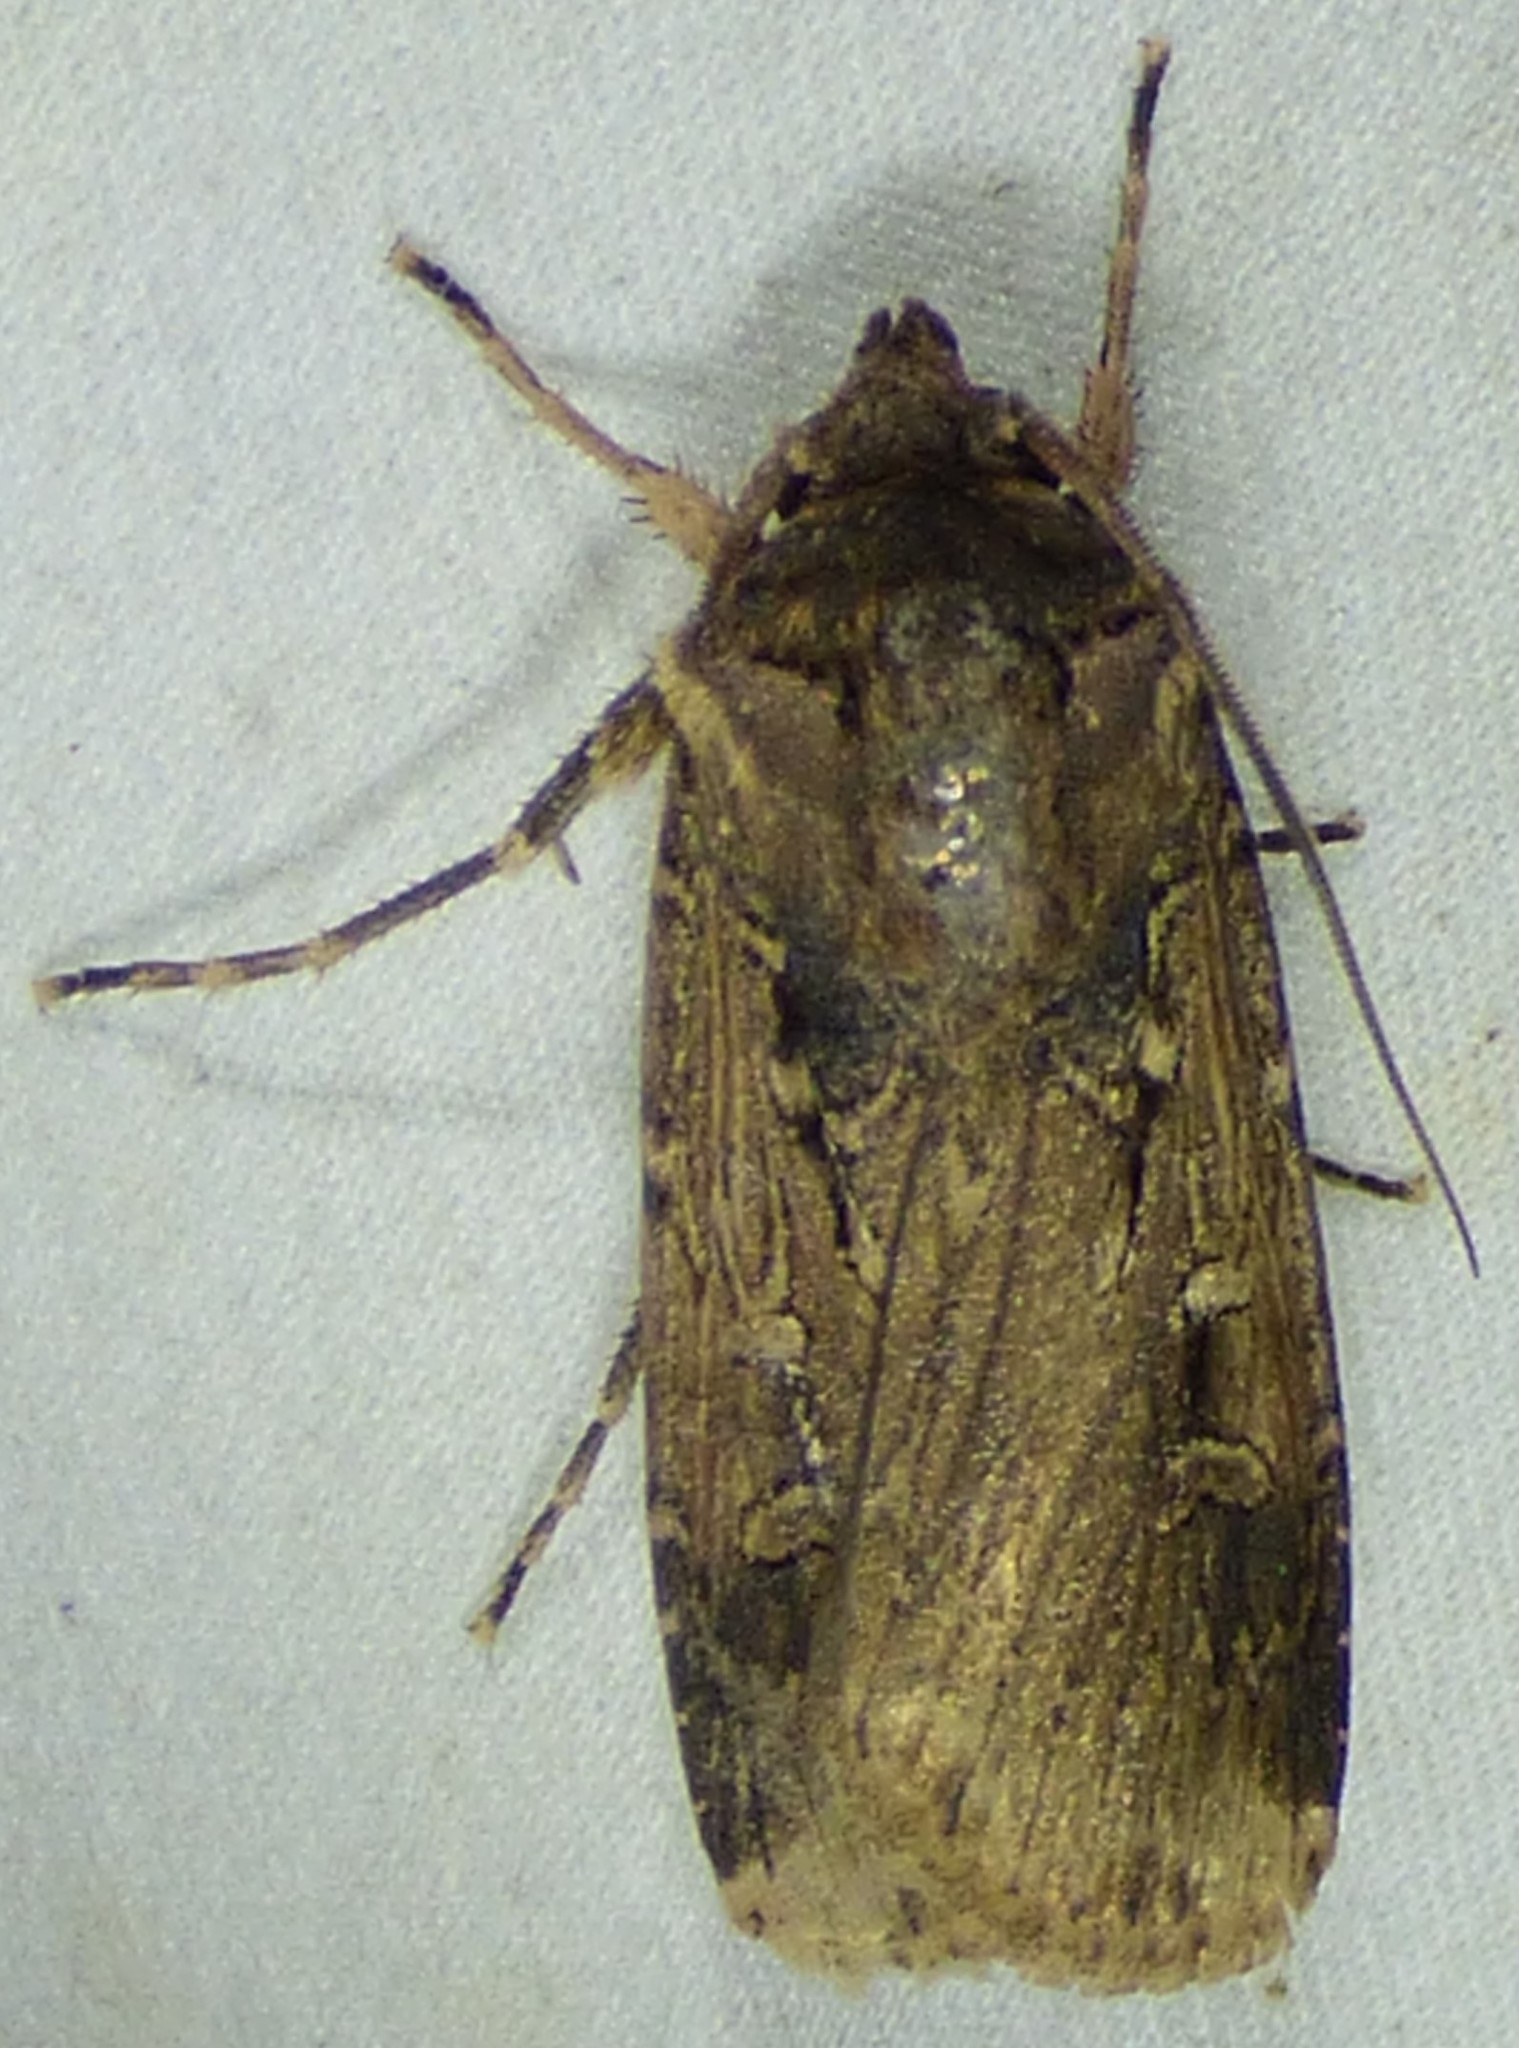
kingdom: Animalia
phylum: Arthropoda
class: Insecta
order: Lepidoptera
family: Noctuidae
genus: Feltia
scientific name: Feltia subterranea
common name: Granulate cutworm
